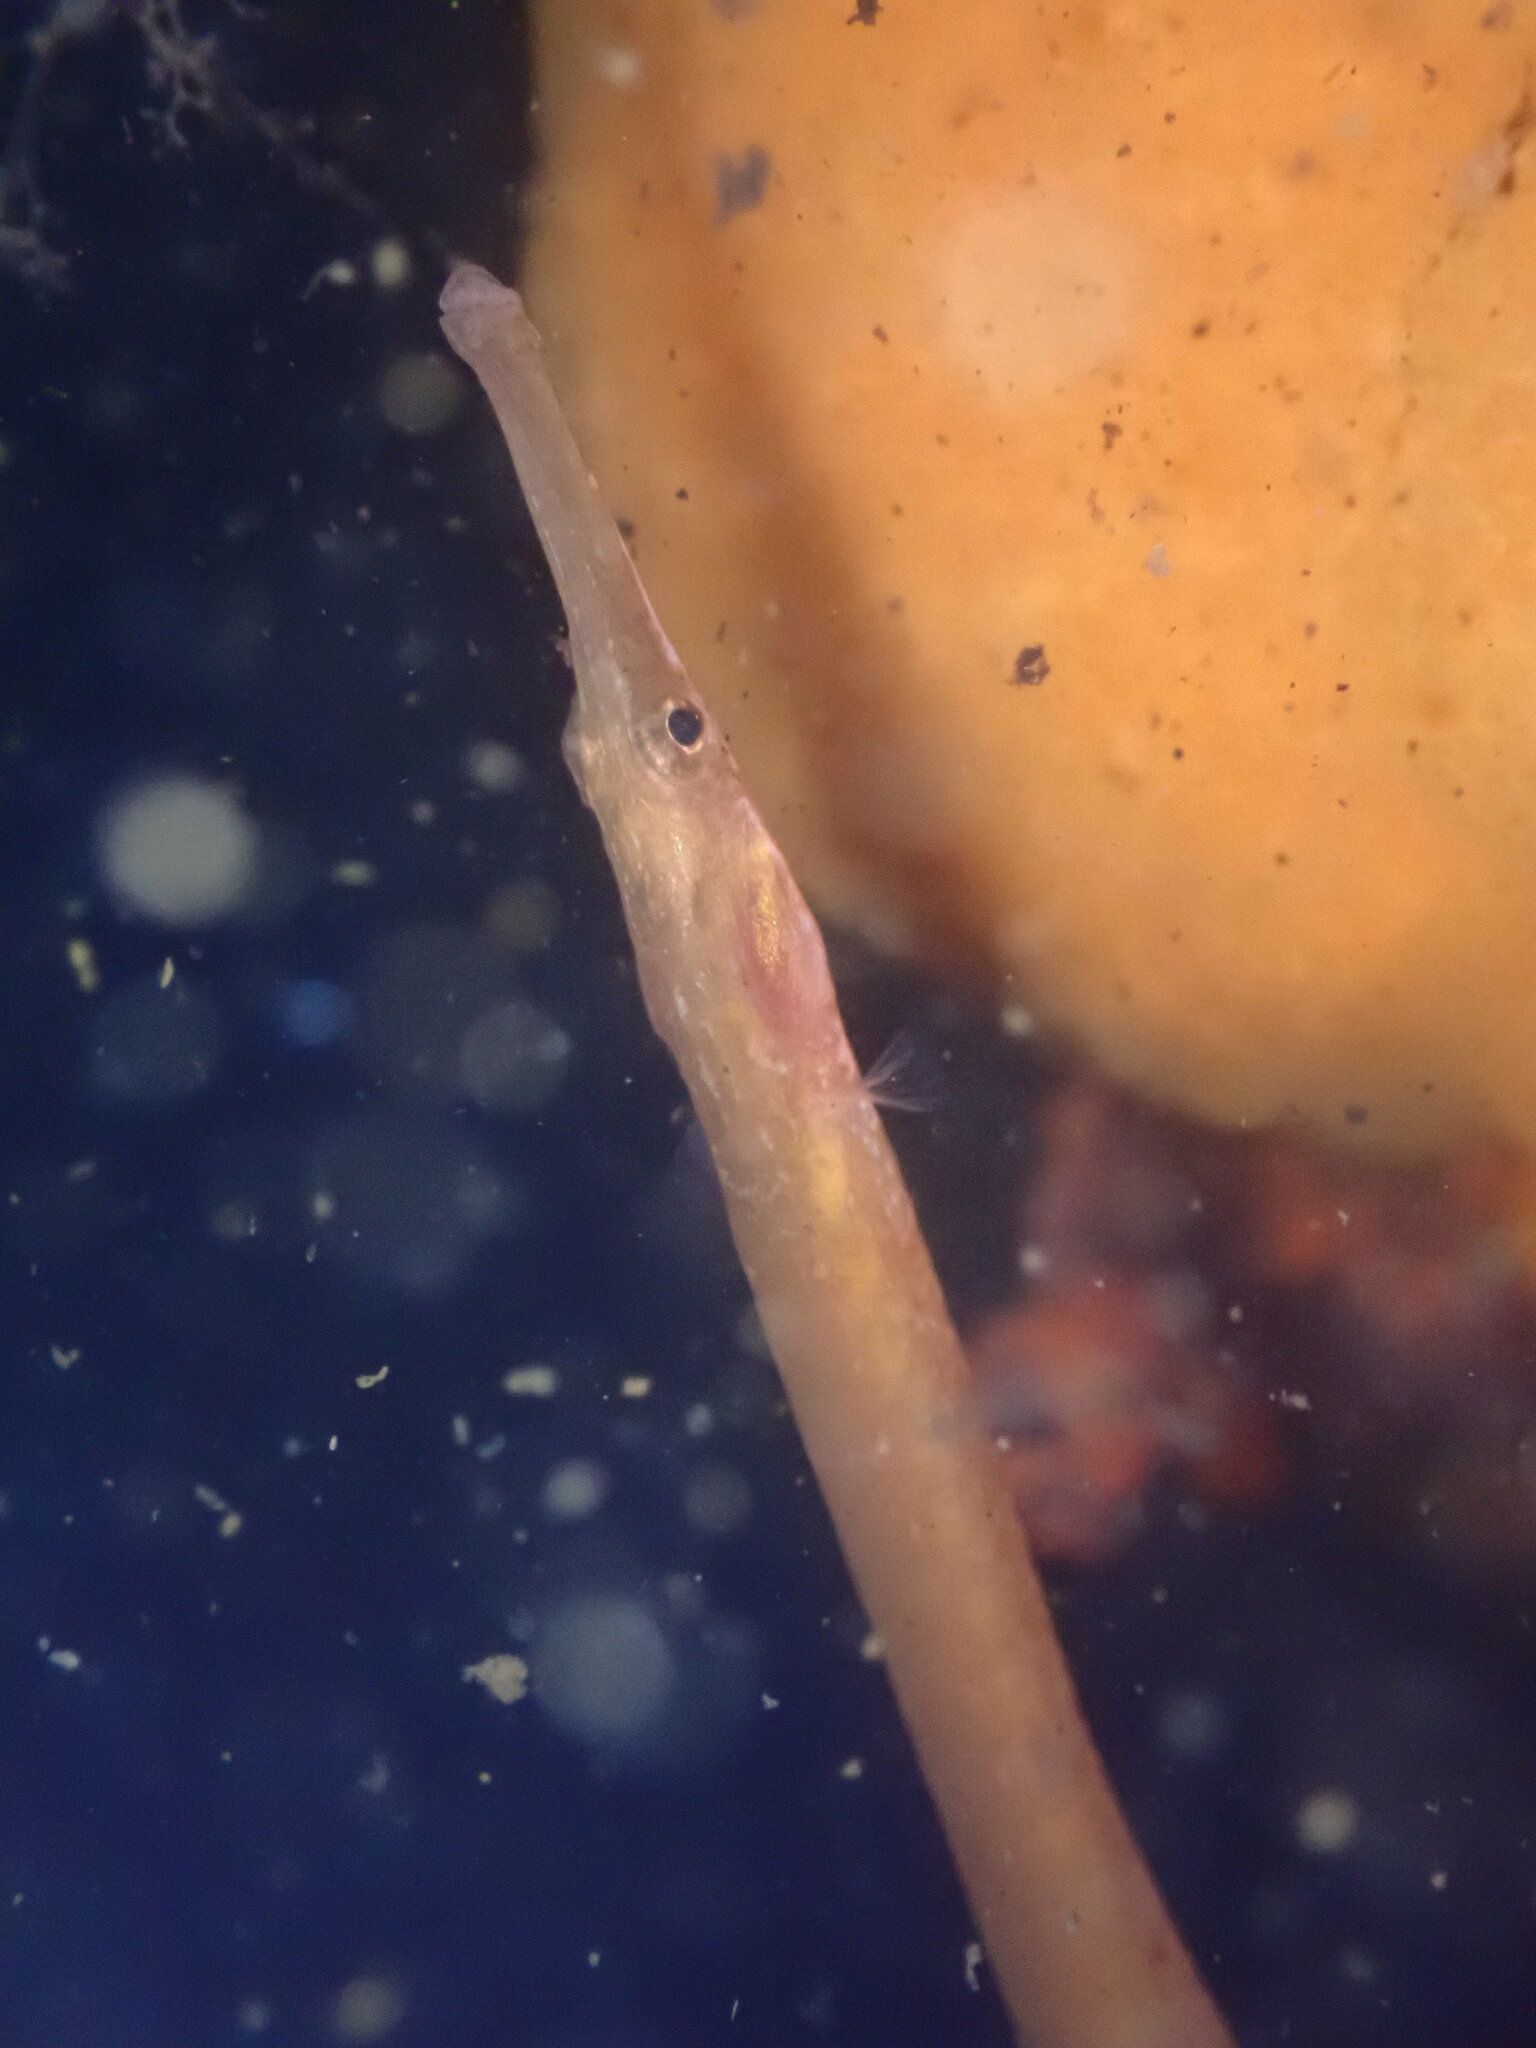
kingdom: Animalia
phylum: Chordata
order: Syngnathiformes
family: Syngnathidae
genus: Syngnathus
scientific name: Syngnathus californiensis
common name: Great pipefish
